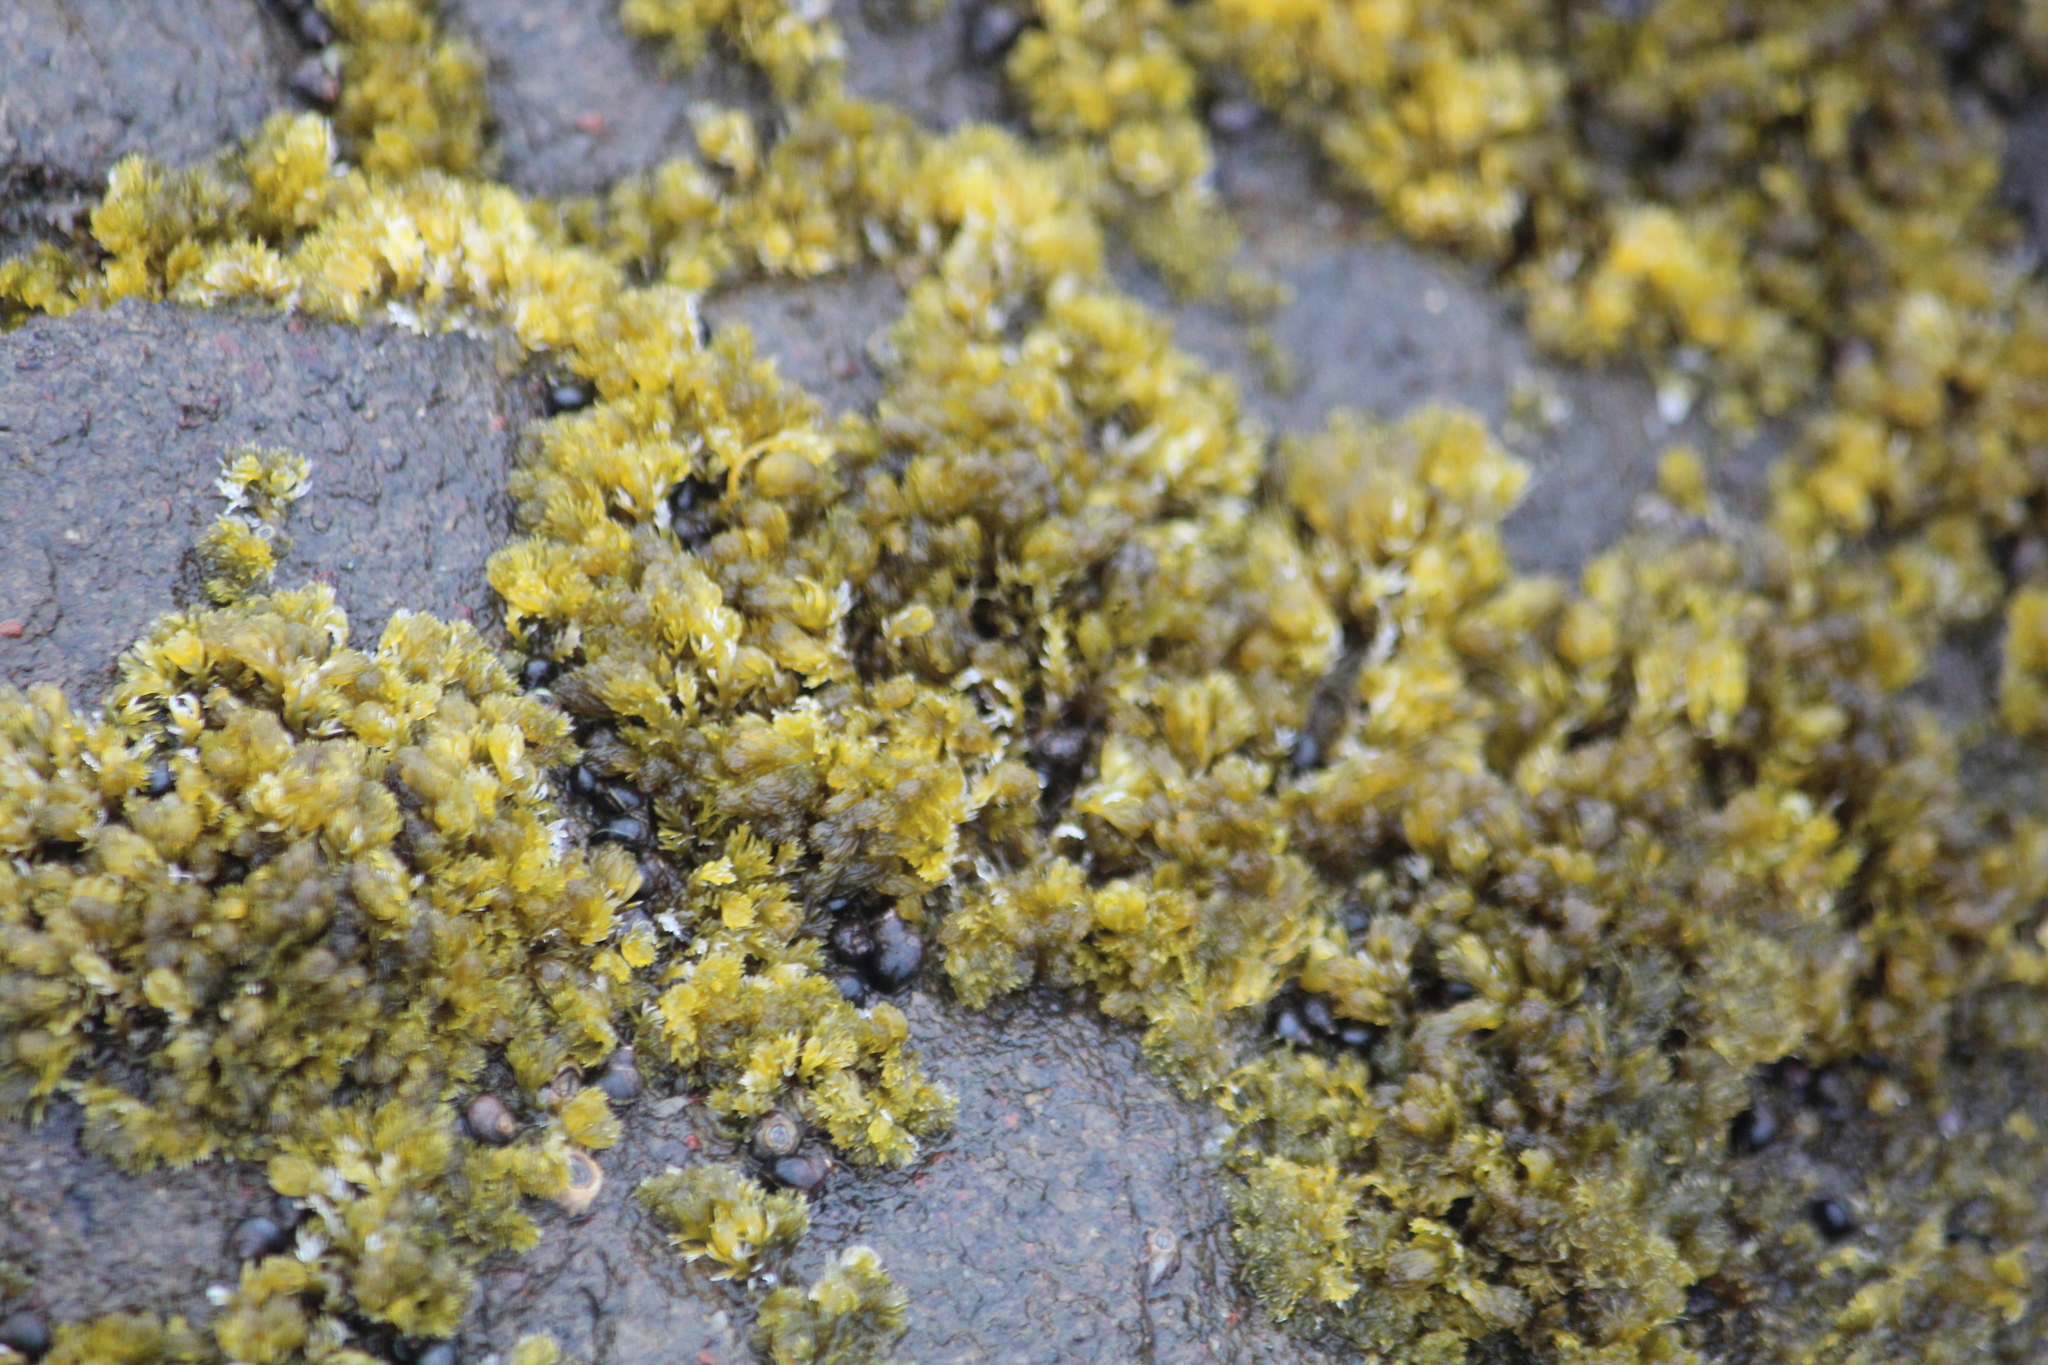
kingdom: Plantae
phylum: Rhodophyta
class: Florideophyceae
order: Ceramiales
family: Rhodomelaceae
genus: Bostrychia
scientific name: Bostrychia arbuscula
